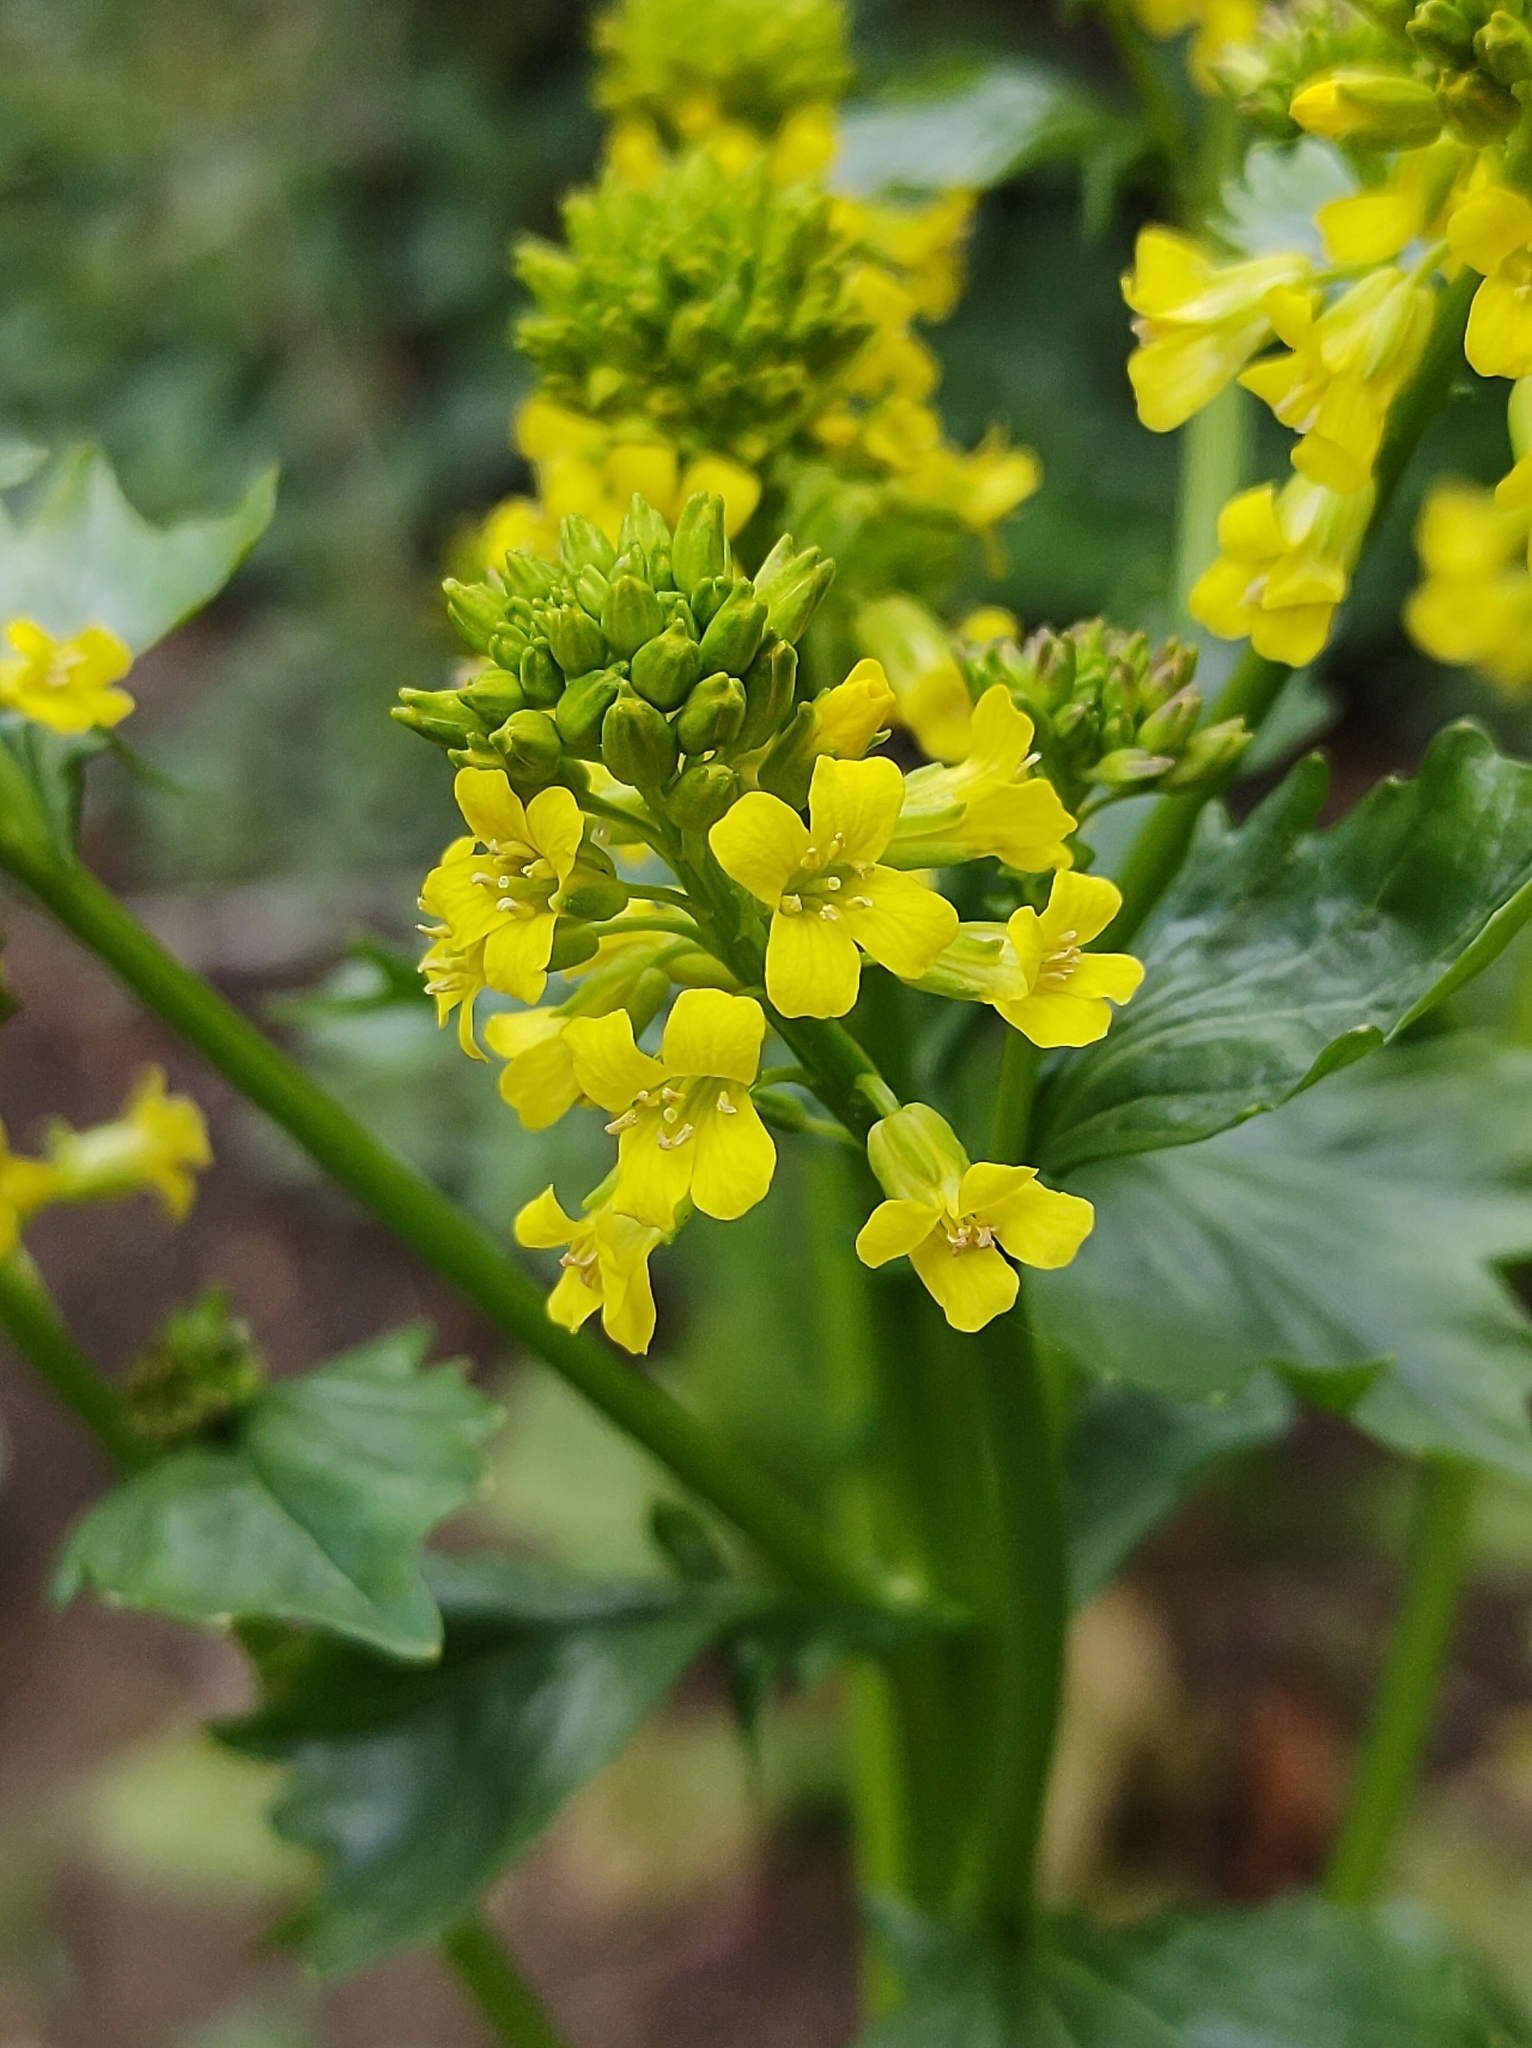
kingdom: Plantae
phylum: Tracheophyta
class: Magnoliopsida
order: Brassicales
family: Brassicaceae
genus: Barbarea
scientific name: Barbarea vulgaris
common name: Cressy-greens
